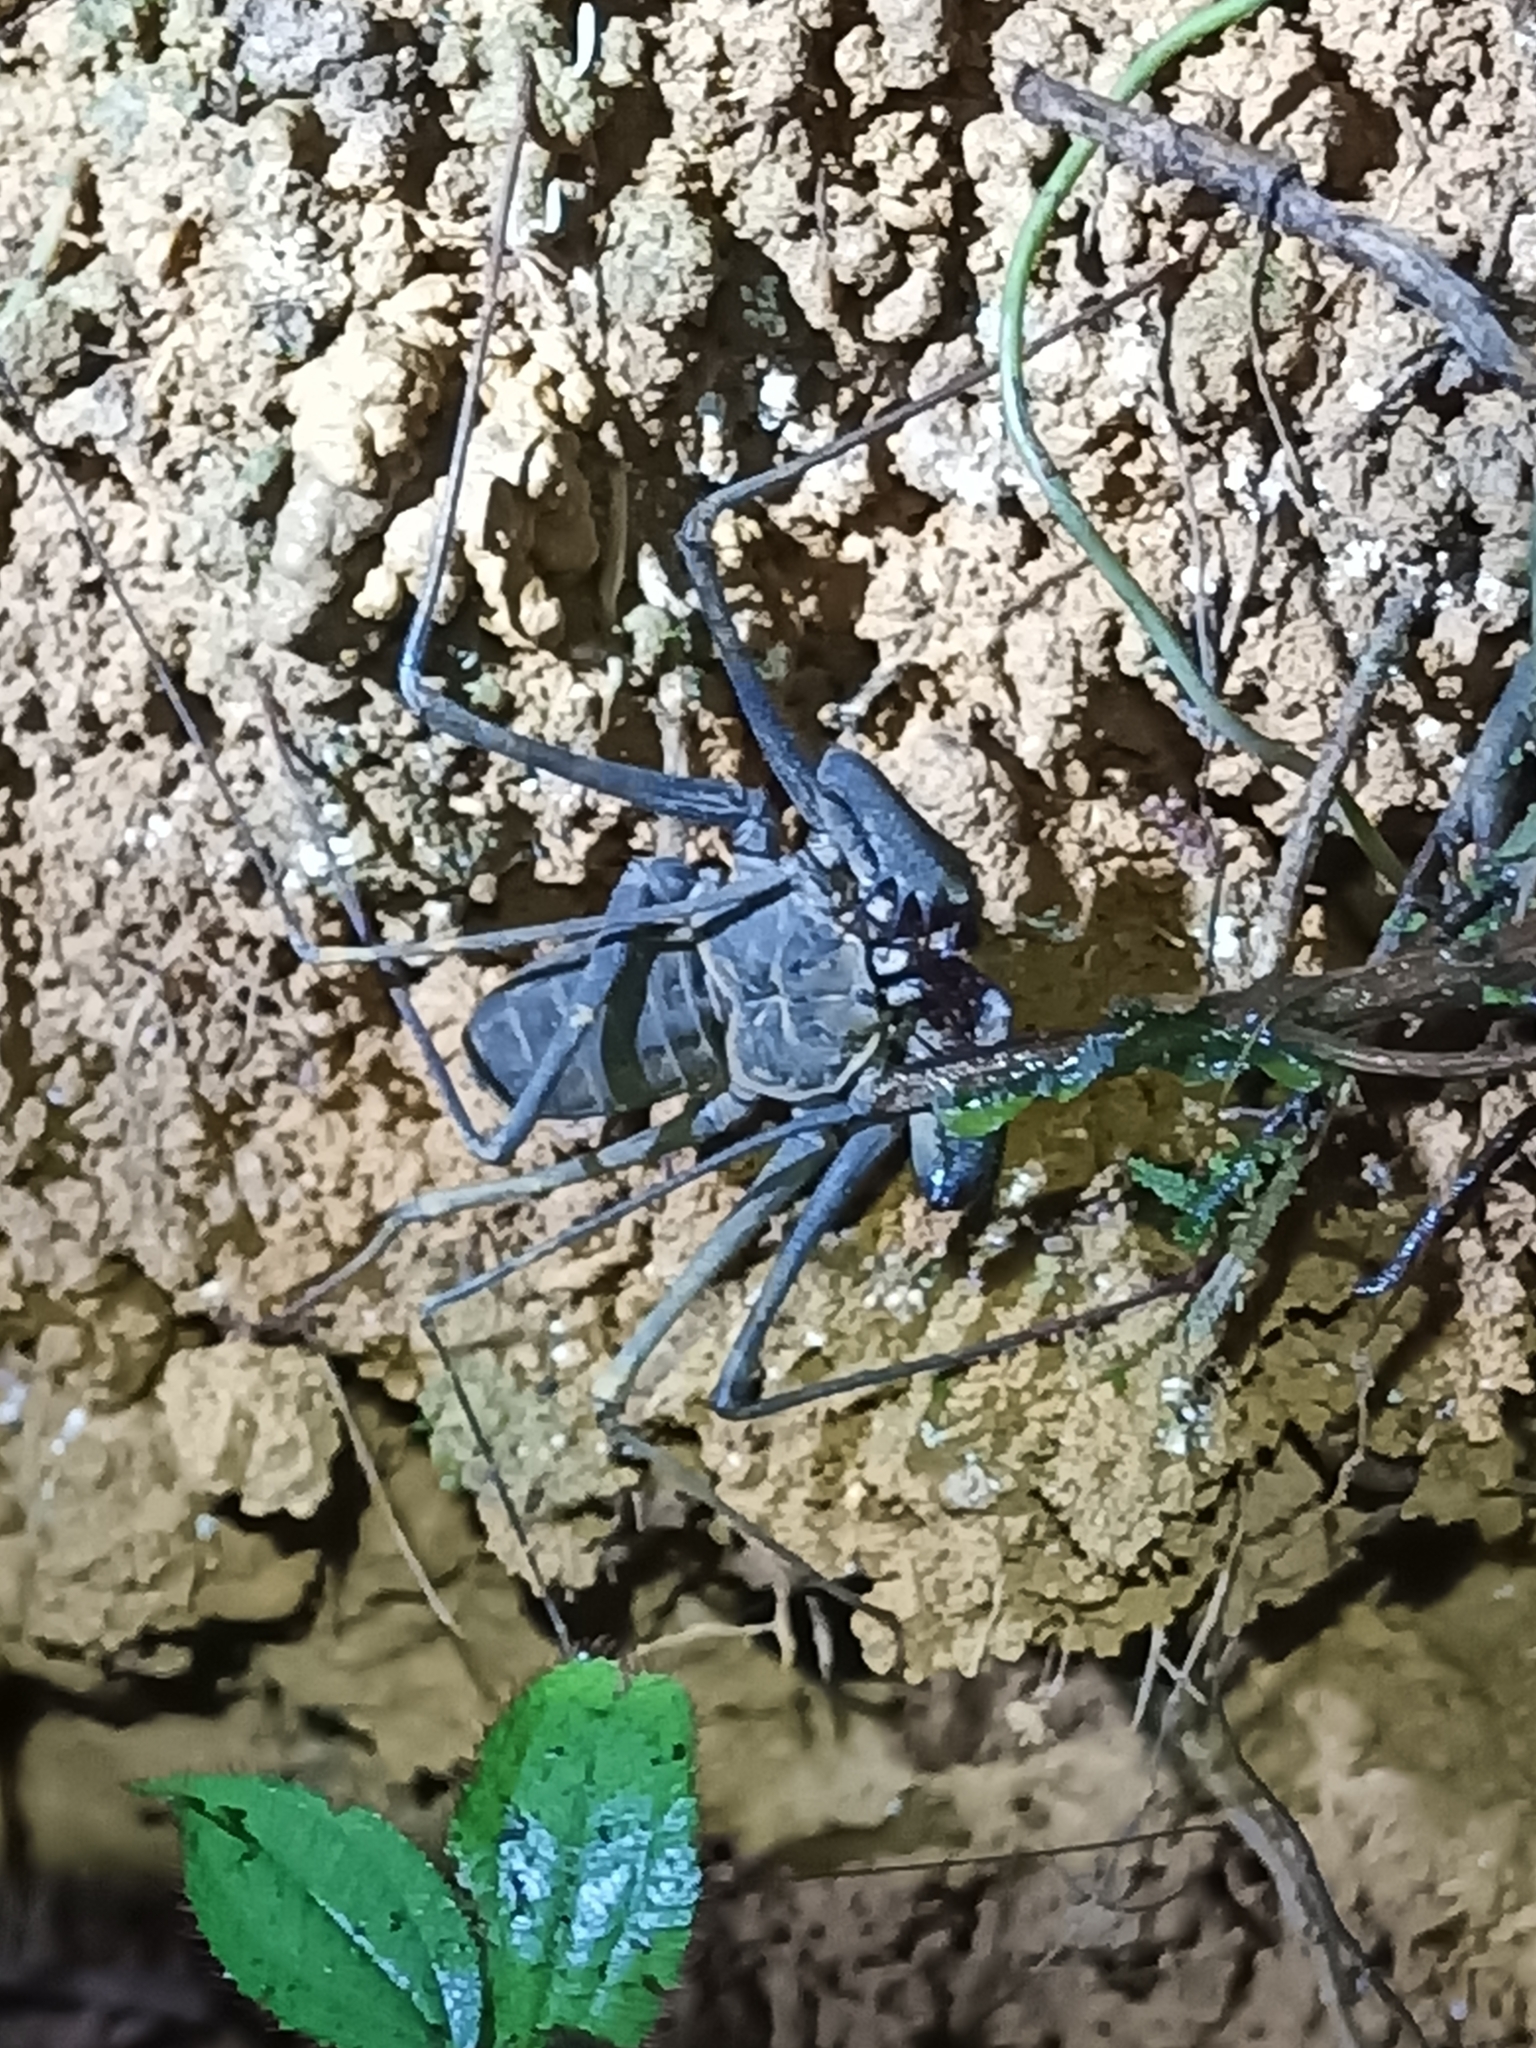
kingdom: Animalia
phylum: Arthropoda
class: Arachnida
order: Amblypygi
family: Phrynidae
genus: Heterophrynus
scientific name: Heterophrynus alces
